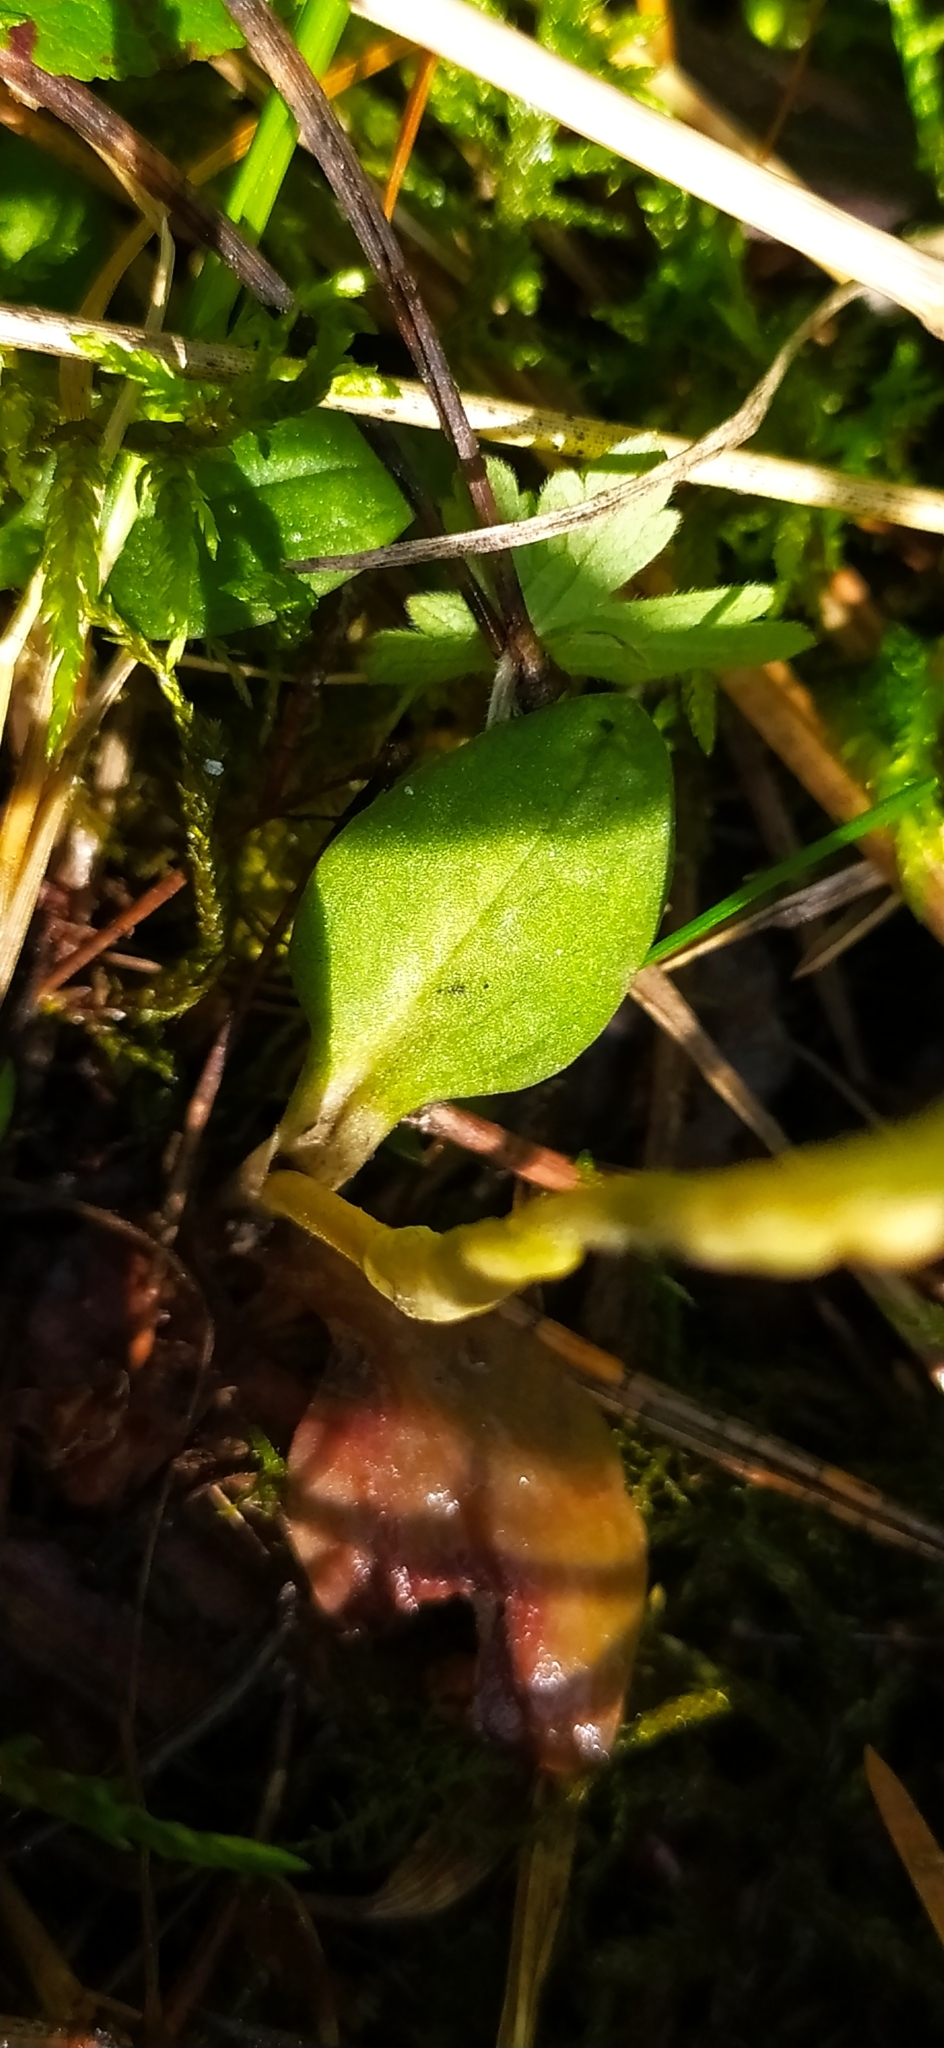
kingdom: Plantae
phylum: Tracheophyta
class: Liliopsida
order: Asparagales
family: Orchidaceae
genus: Goodyera
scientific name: Goodyera repens
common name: Creeping lady's-tresses
